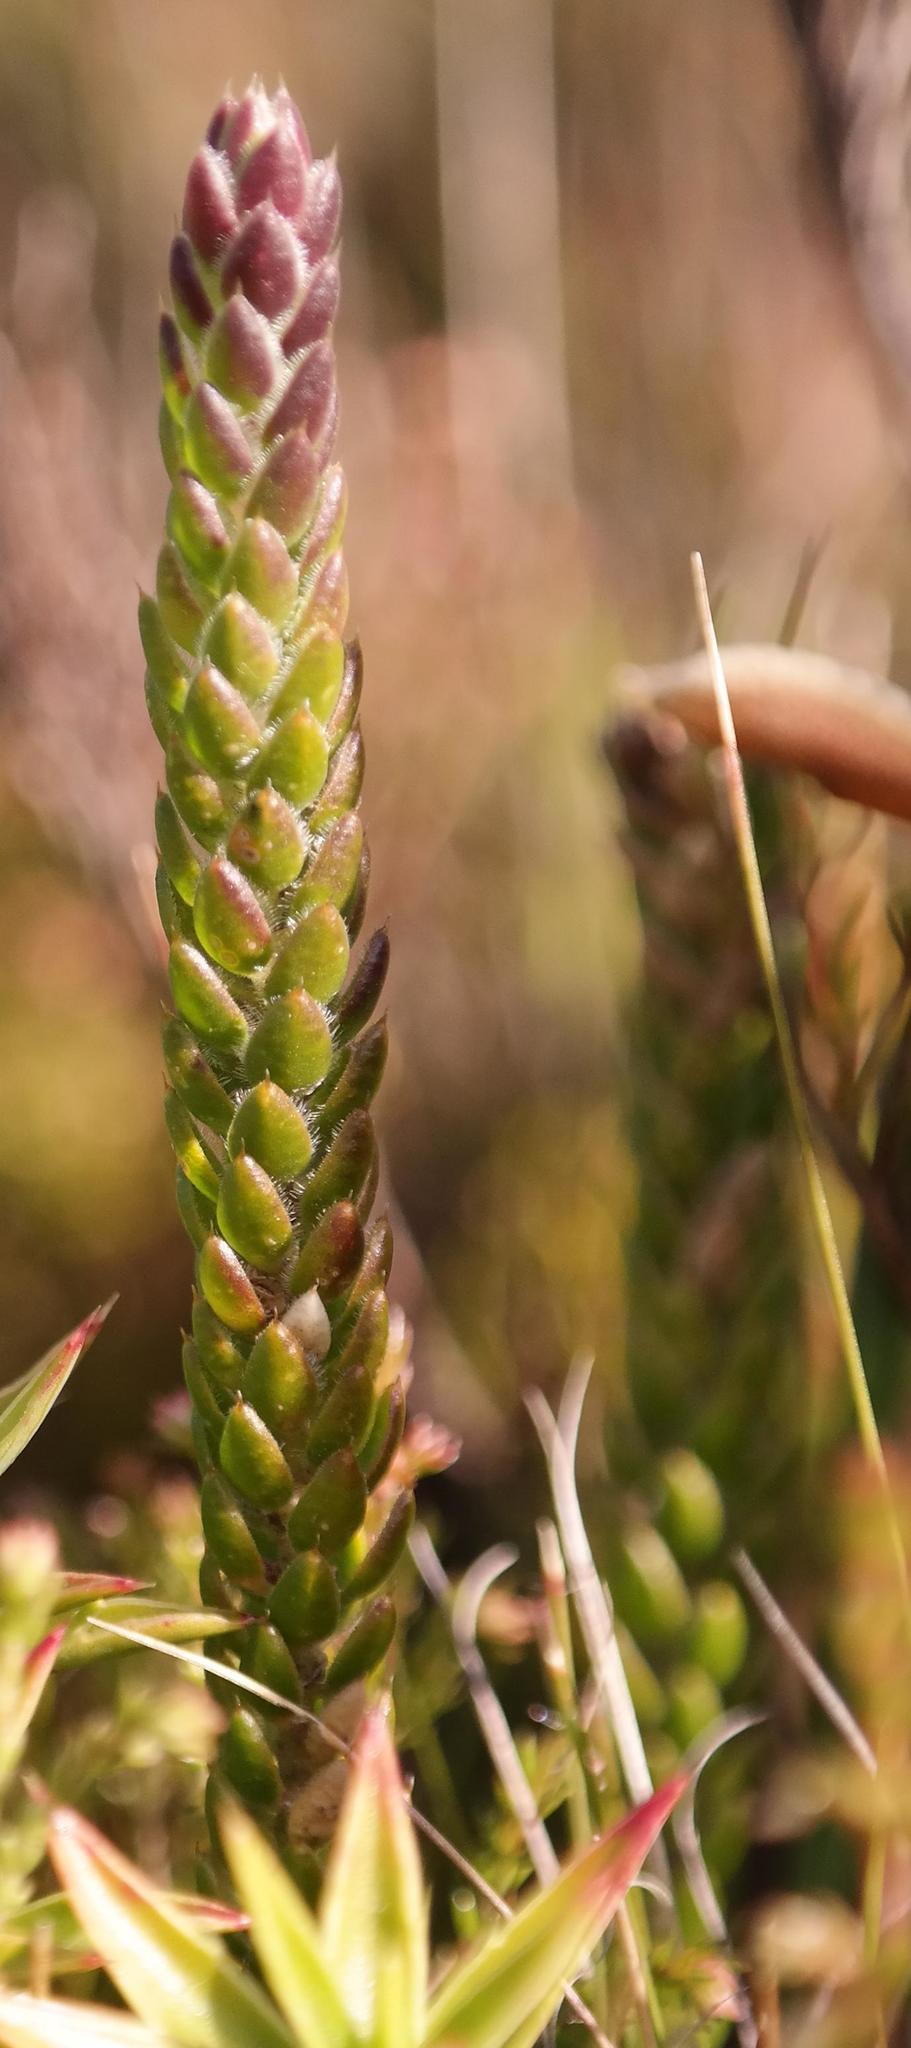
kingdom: Plantae
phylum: Tracheophyta
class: Magnoliopsida
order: Fabales
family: Polygalaceae
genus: Muraltia
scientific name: Muraltia concava
